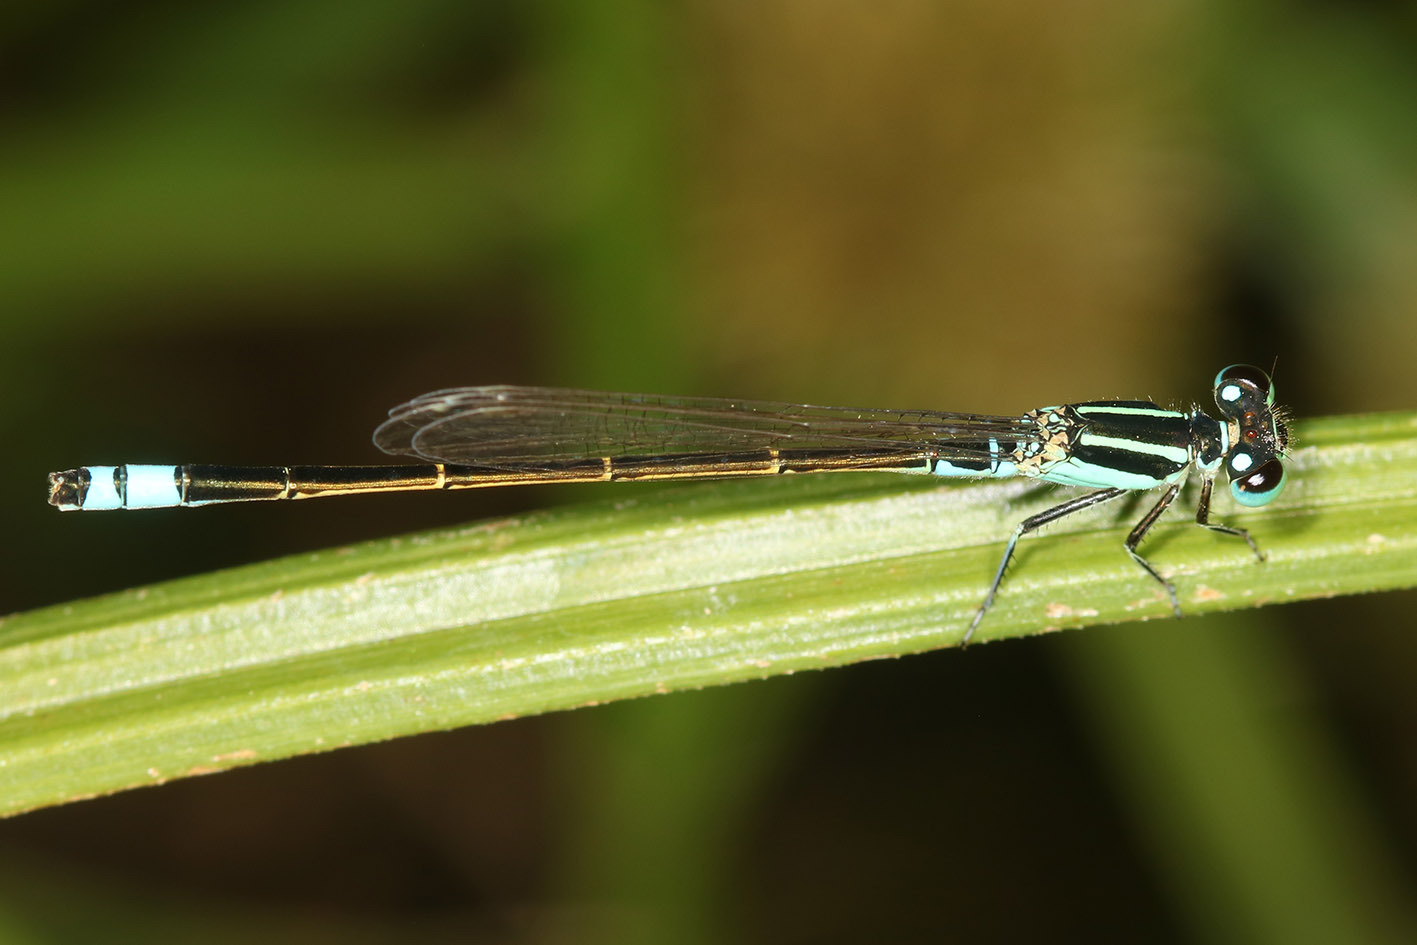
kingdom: Animalia
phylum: Arthropoda
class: Insecta
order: Odonata
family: Coenagrionidae
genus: Ischnura
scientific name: Ischnura fluviatilis
